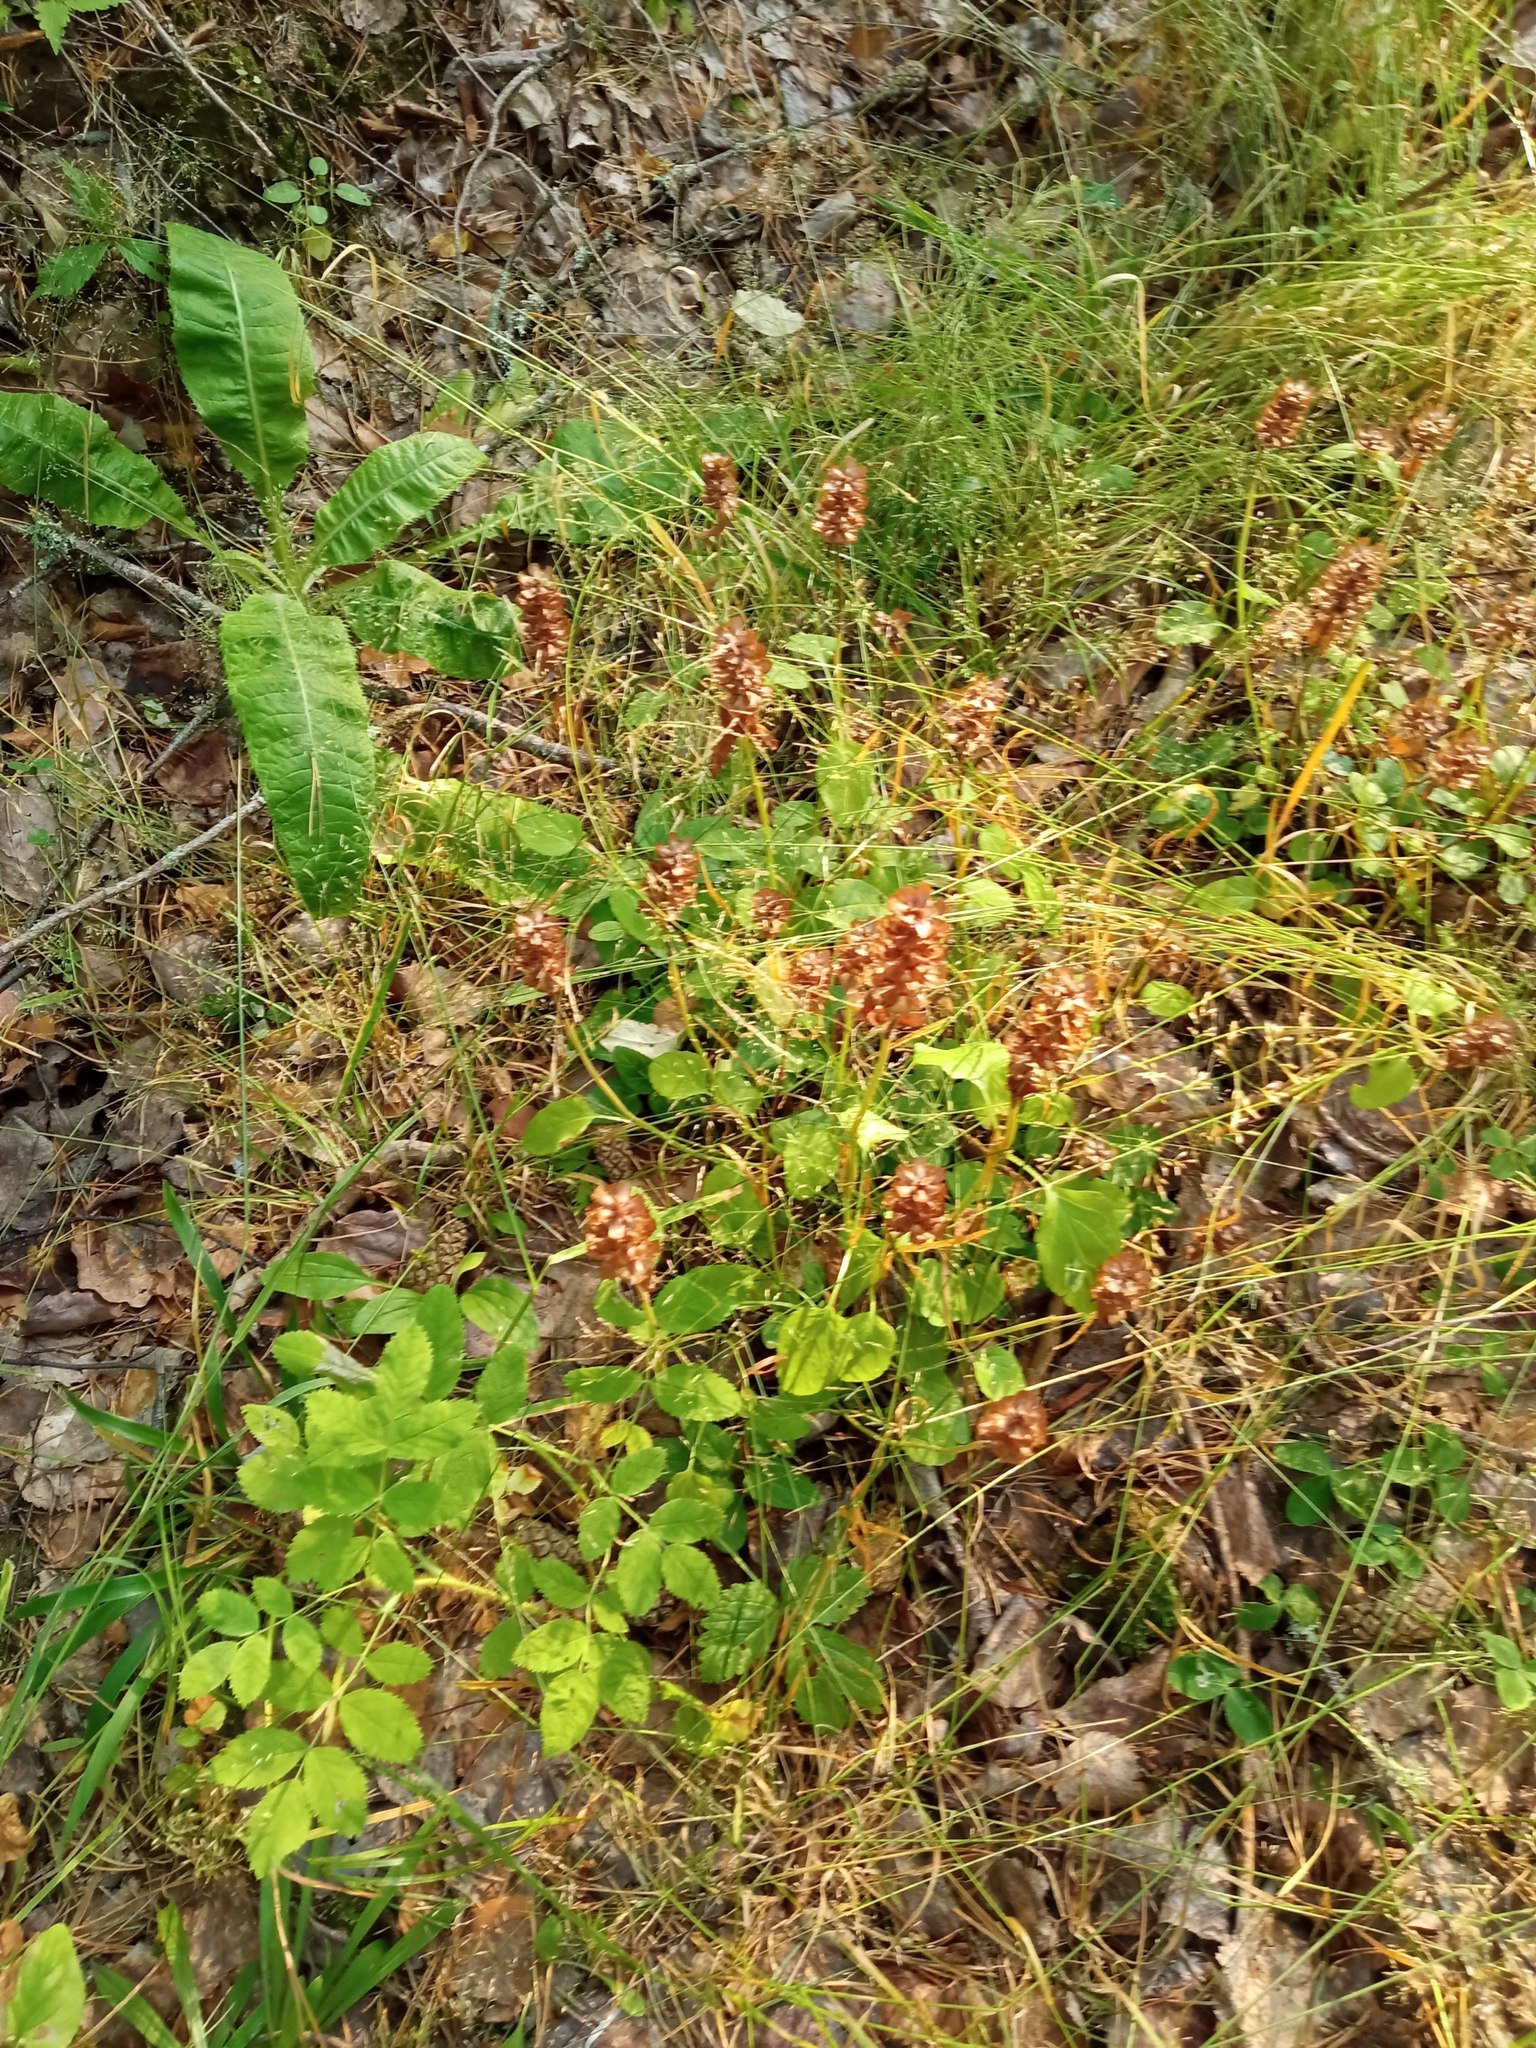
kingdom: Plantae
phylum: Tracheophyta
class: Magnoliopsida
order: Lamiales
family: Lamiaceae
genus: Prunella
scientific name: Prunella vulgaris
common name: Heal-all
